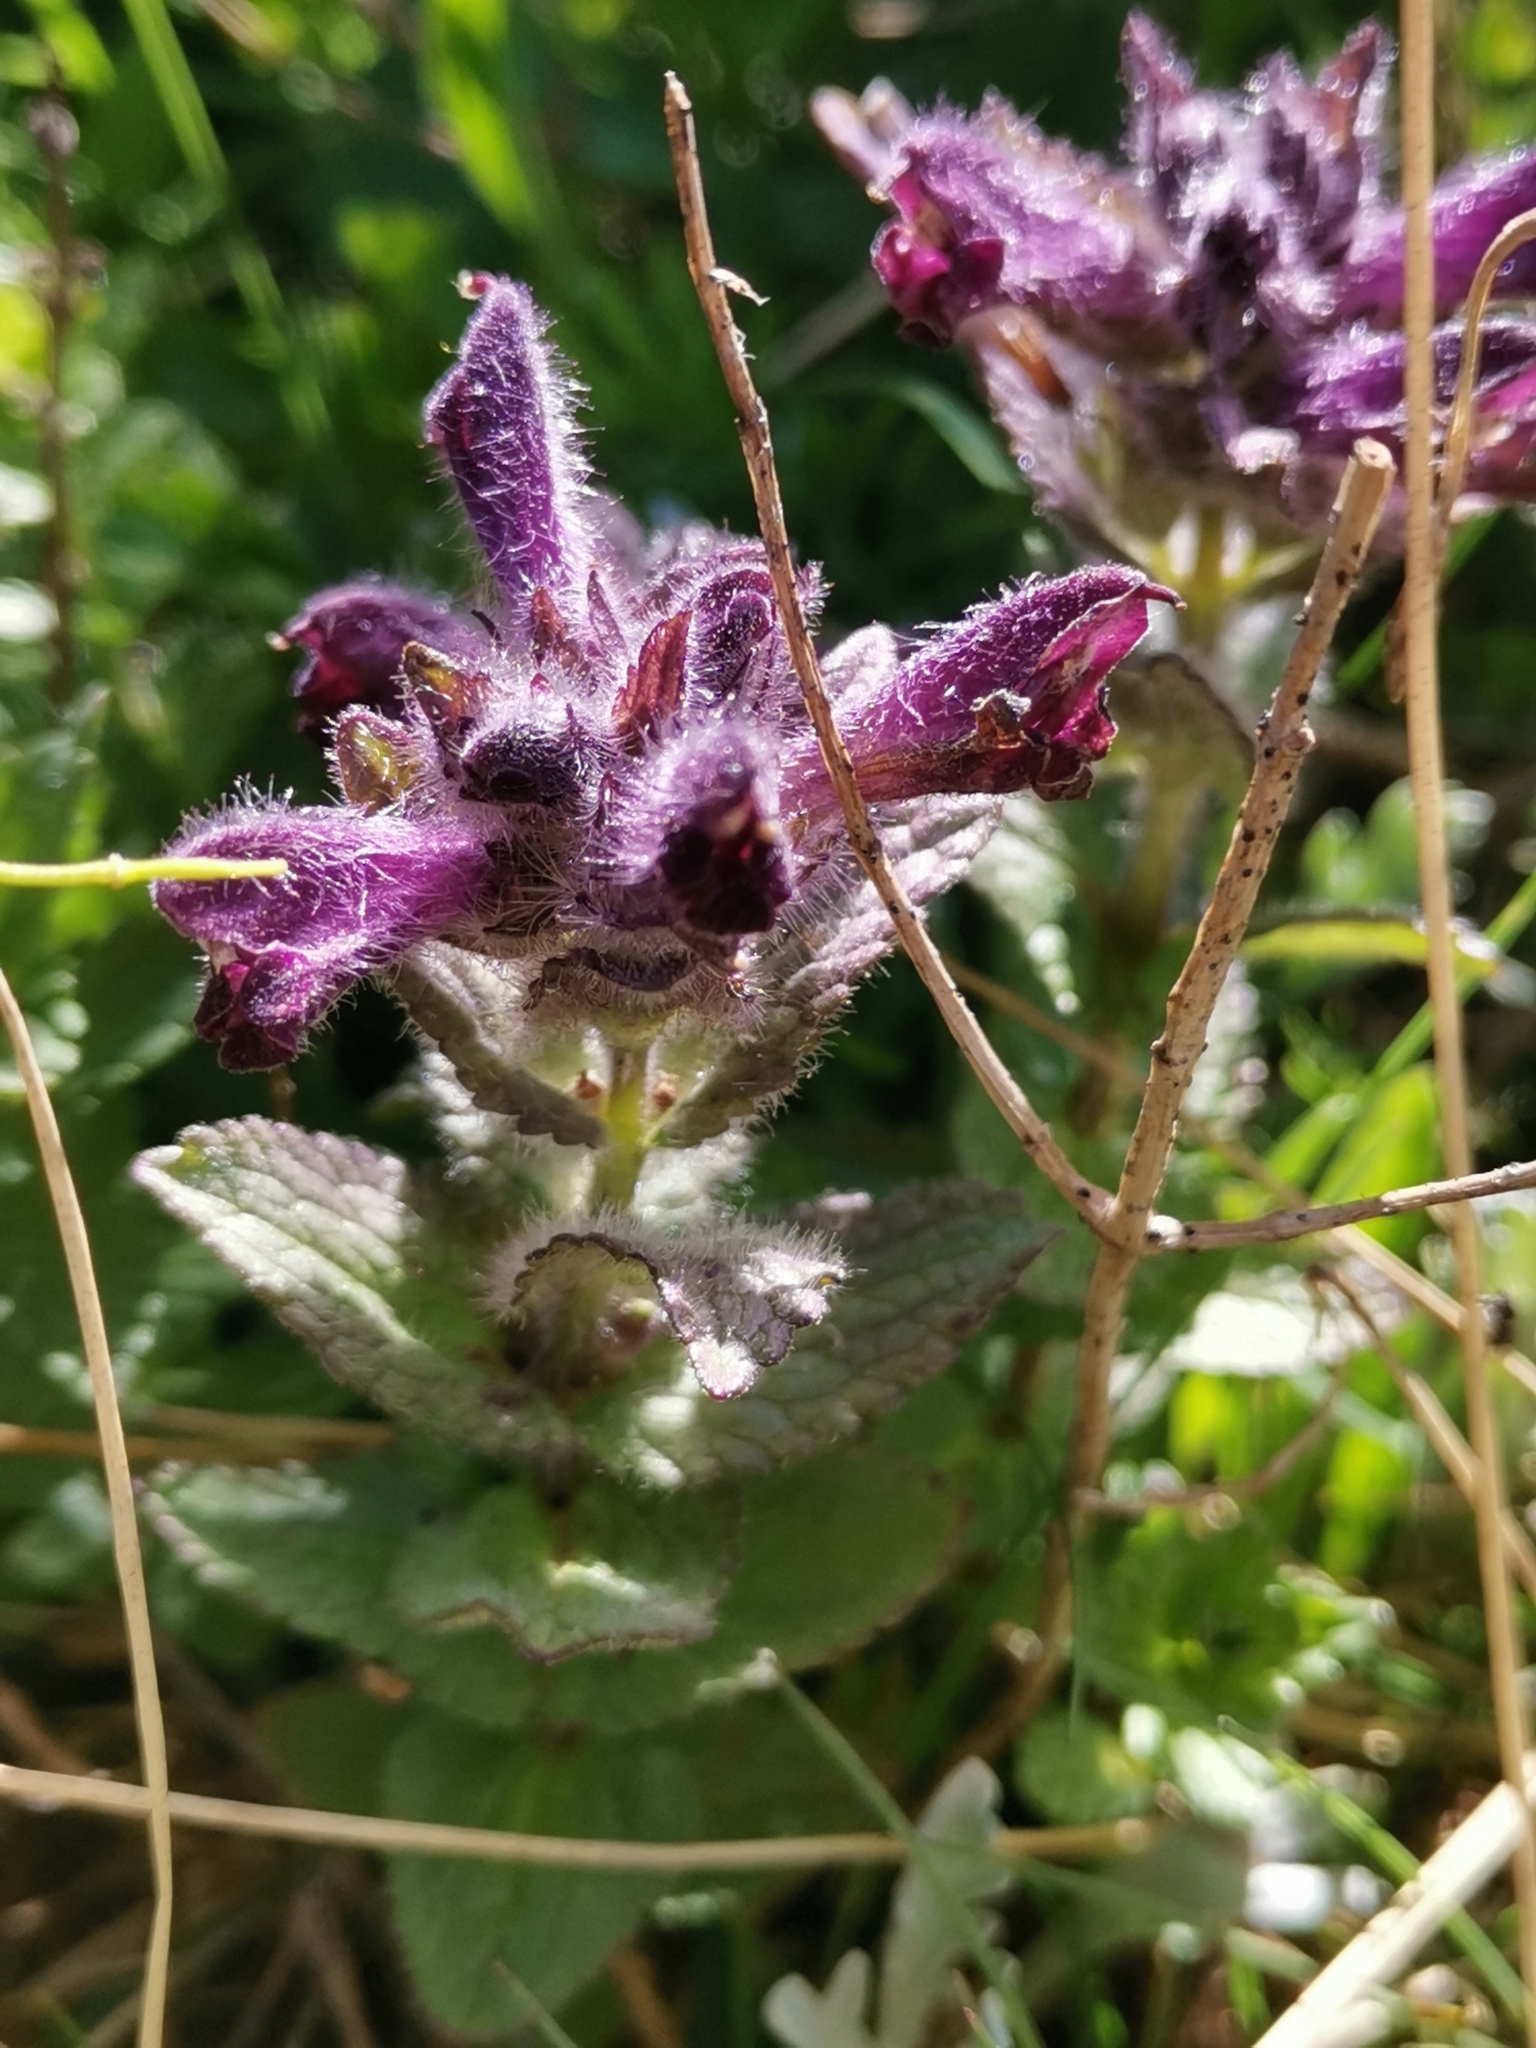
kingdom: Plantae
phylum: Tracheophyta
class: Magnoliopsida
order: Lamiales
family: Orobanchaceae
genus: Bartsia
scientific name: Bartsia alpina
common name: Alpine bartsia
